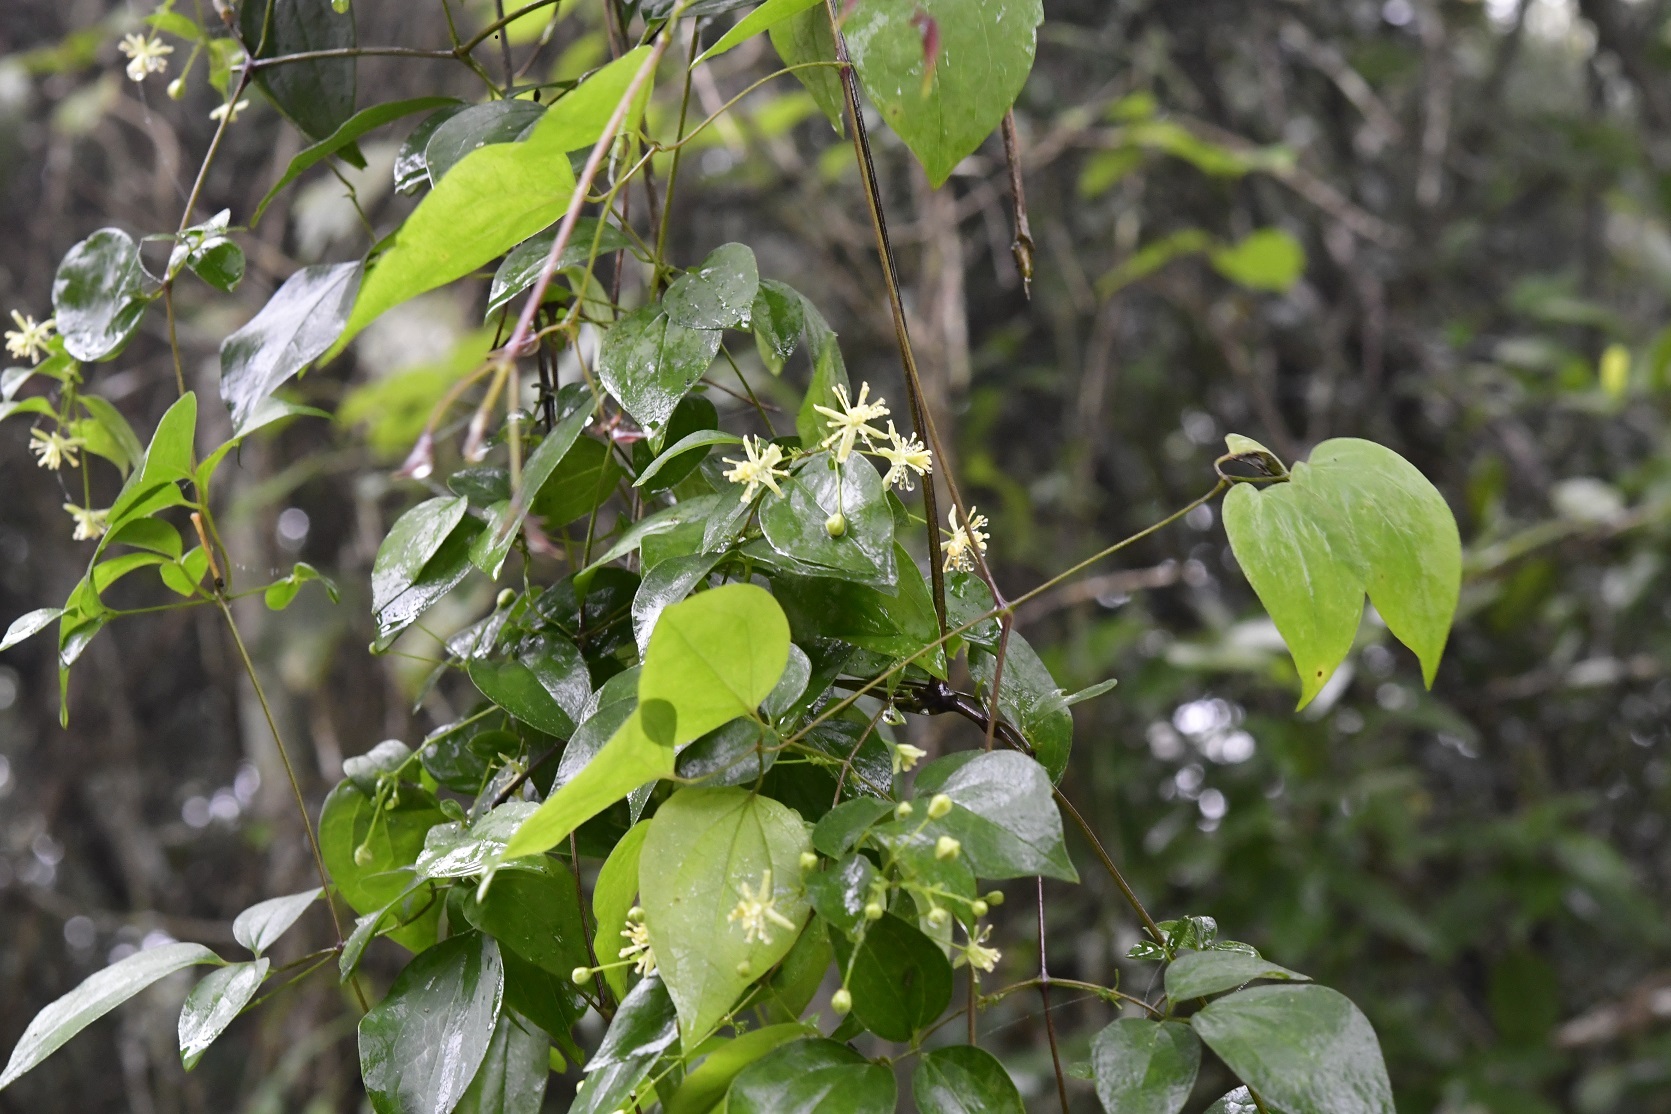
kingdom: Plantae
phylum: Tracheophyta
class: Magnoliopsida
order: Ranunculales
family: Ranunculaceae
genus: Clematis
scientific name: Clematis dioica
